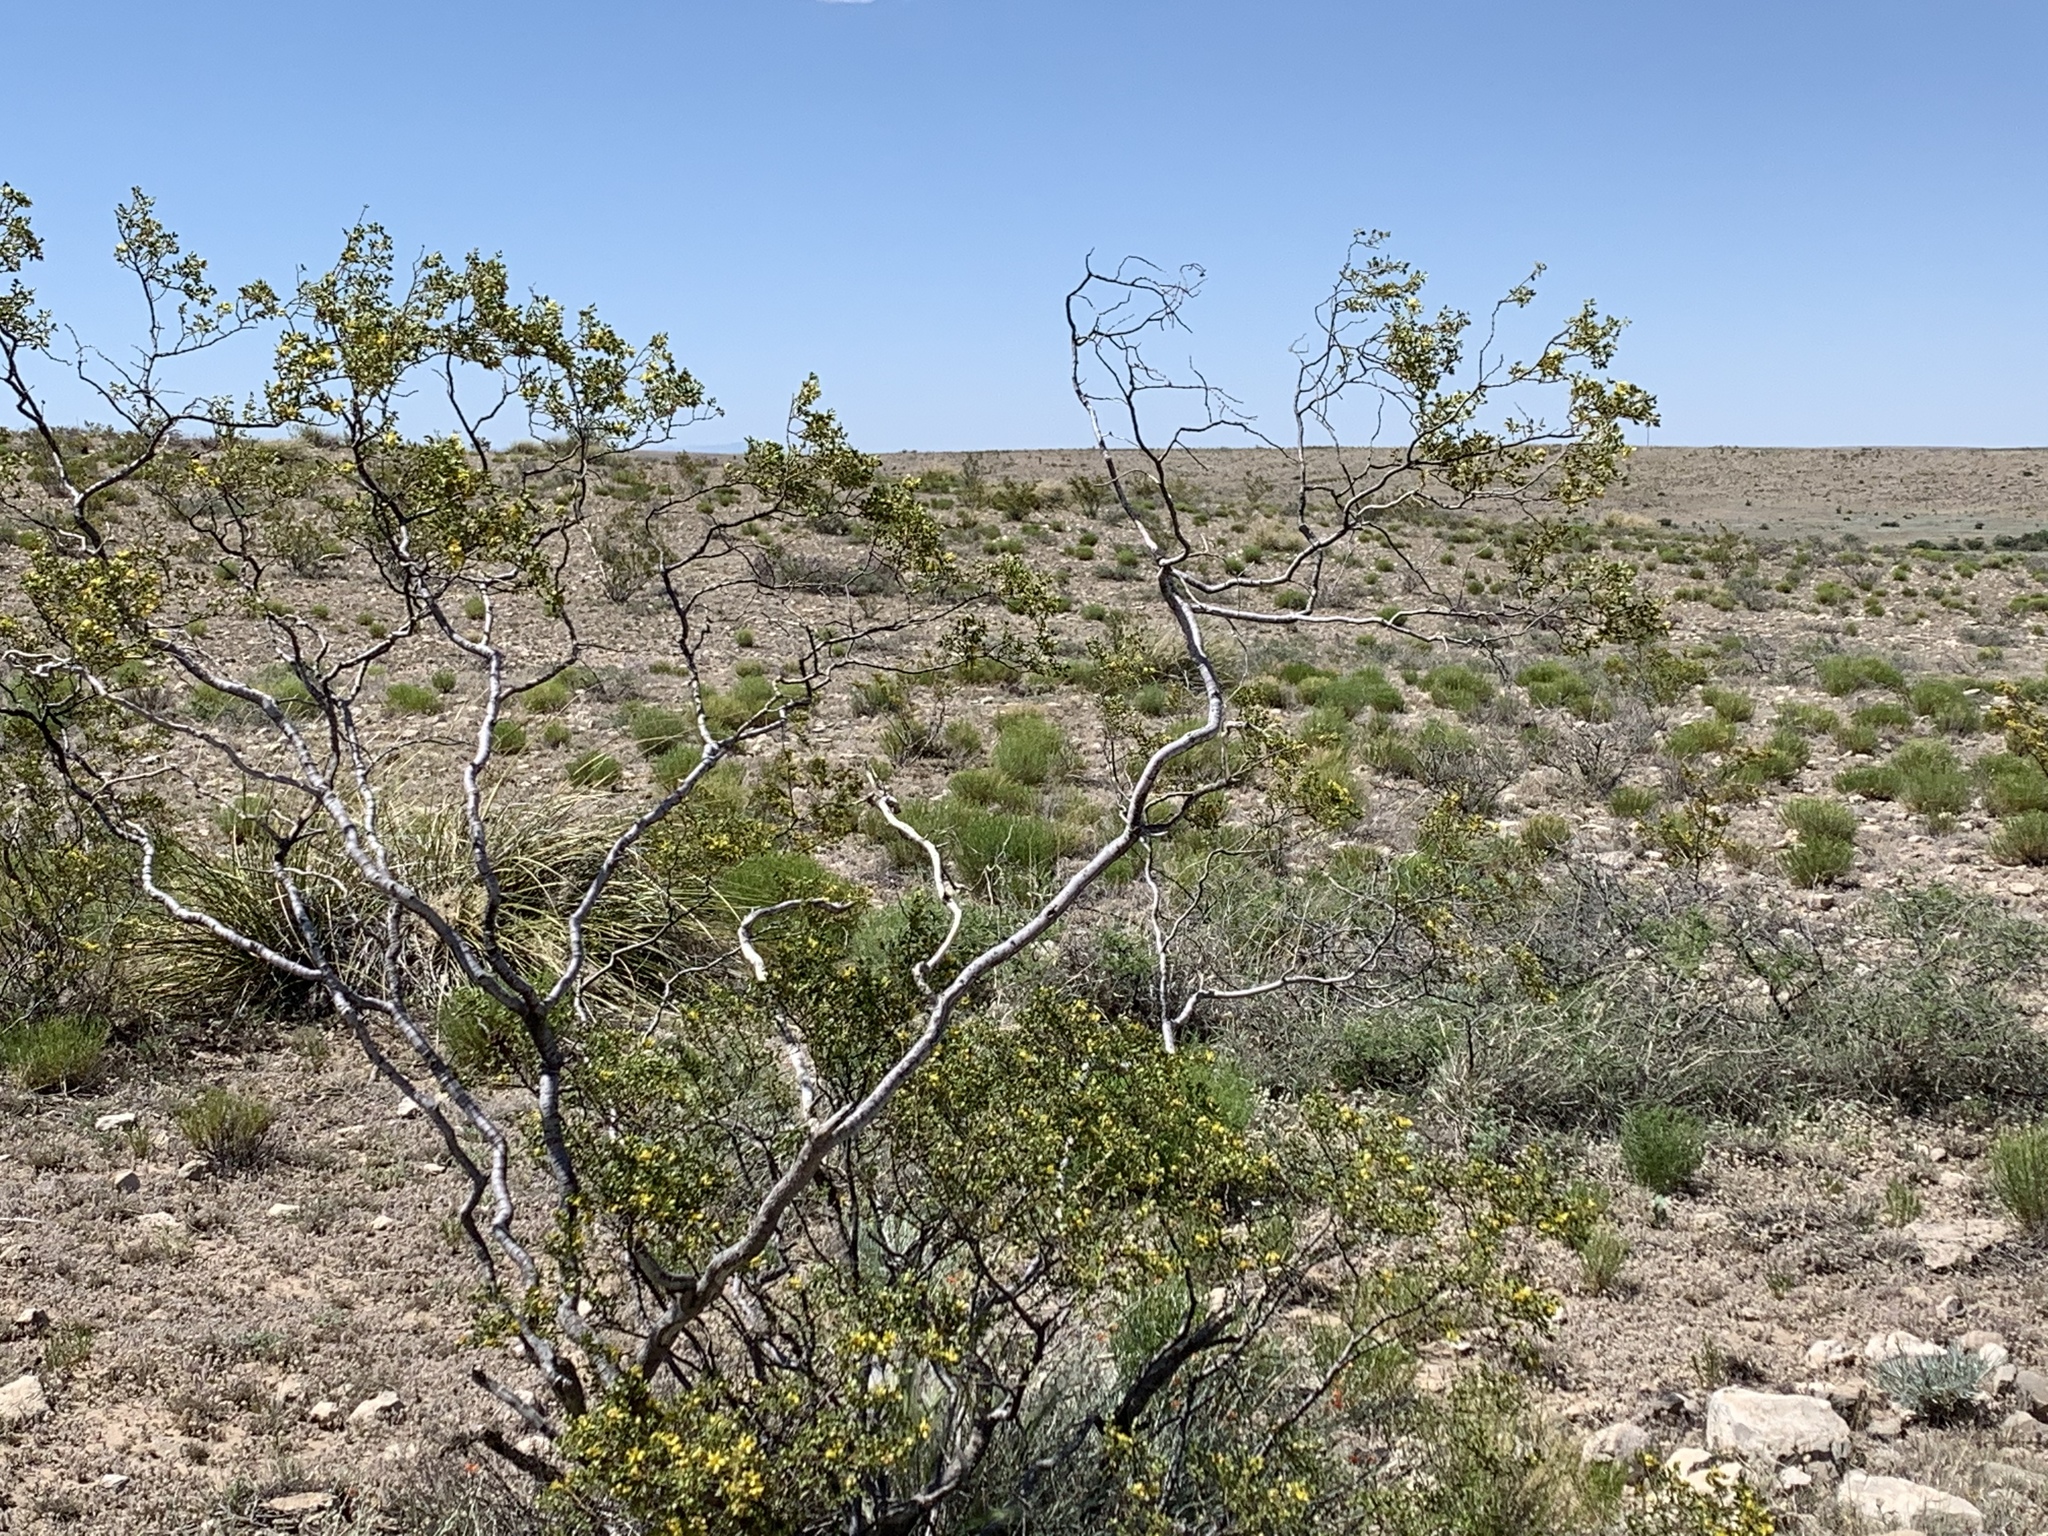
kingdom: Plantae
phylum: Tracheophyta
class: Magnoliopsida
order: Zygophyllales
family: Zygophyllaceae
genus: Larrea
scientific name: Larrea tridentata
